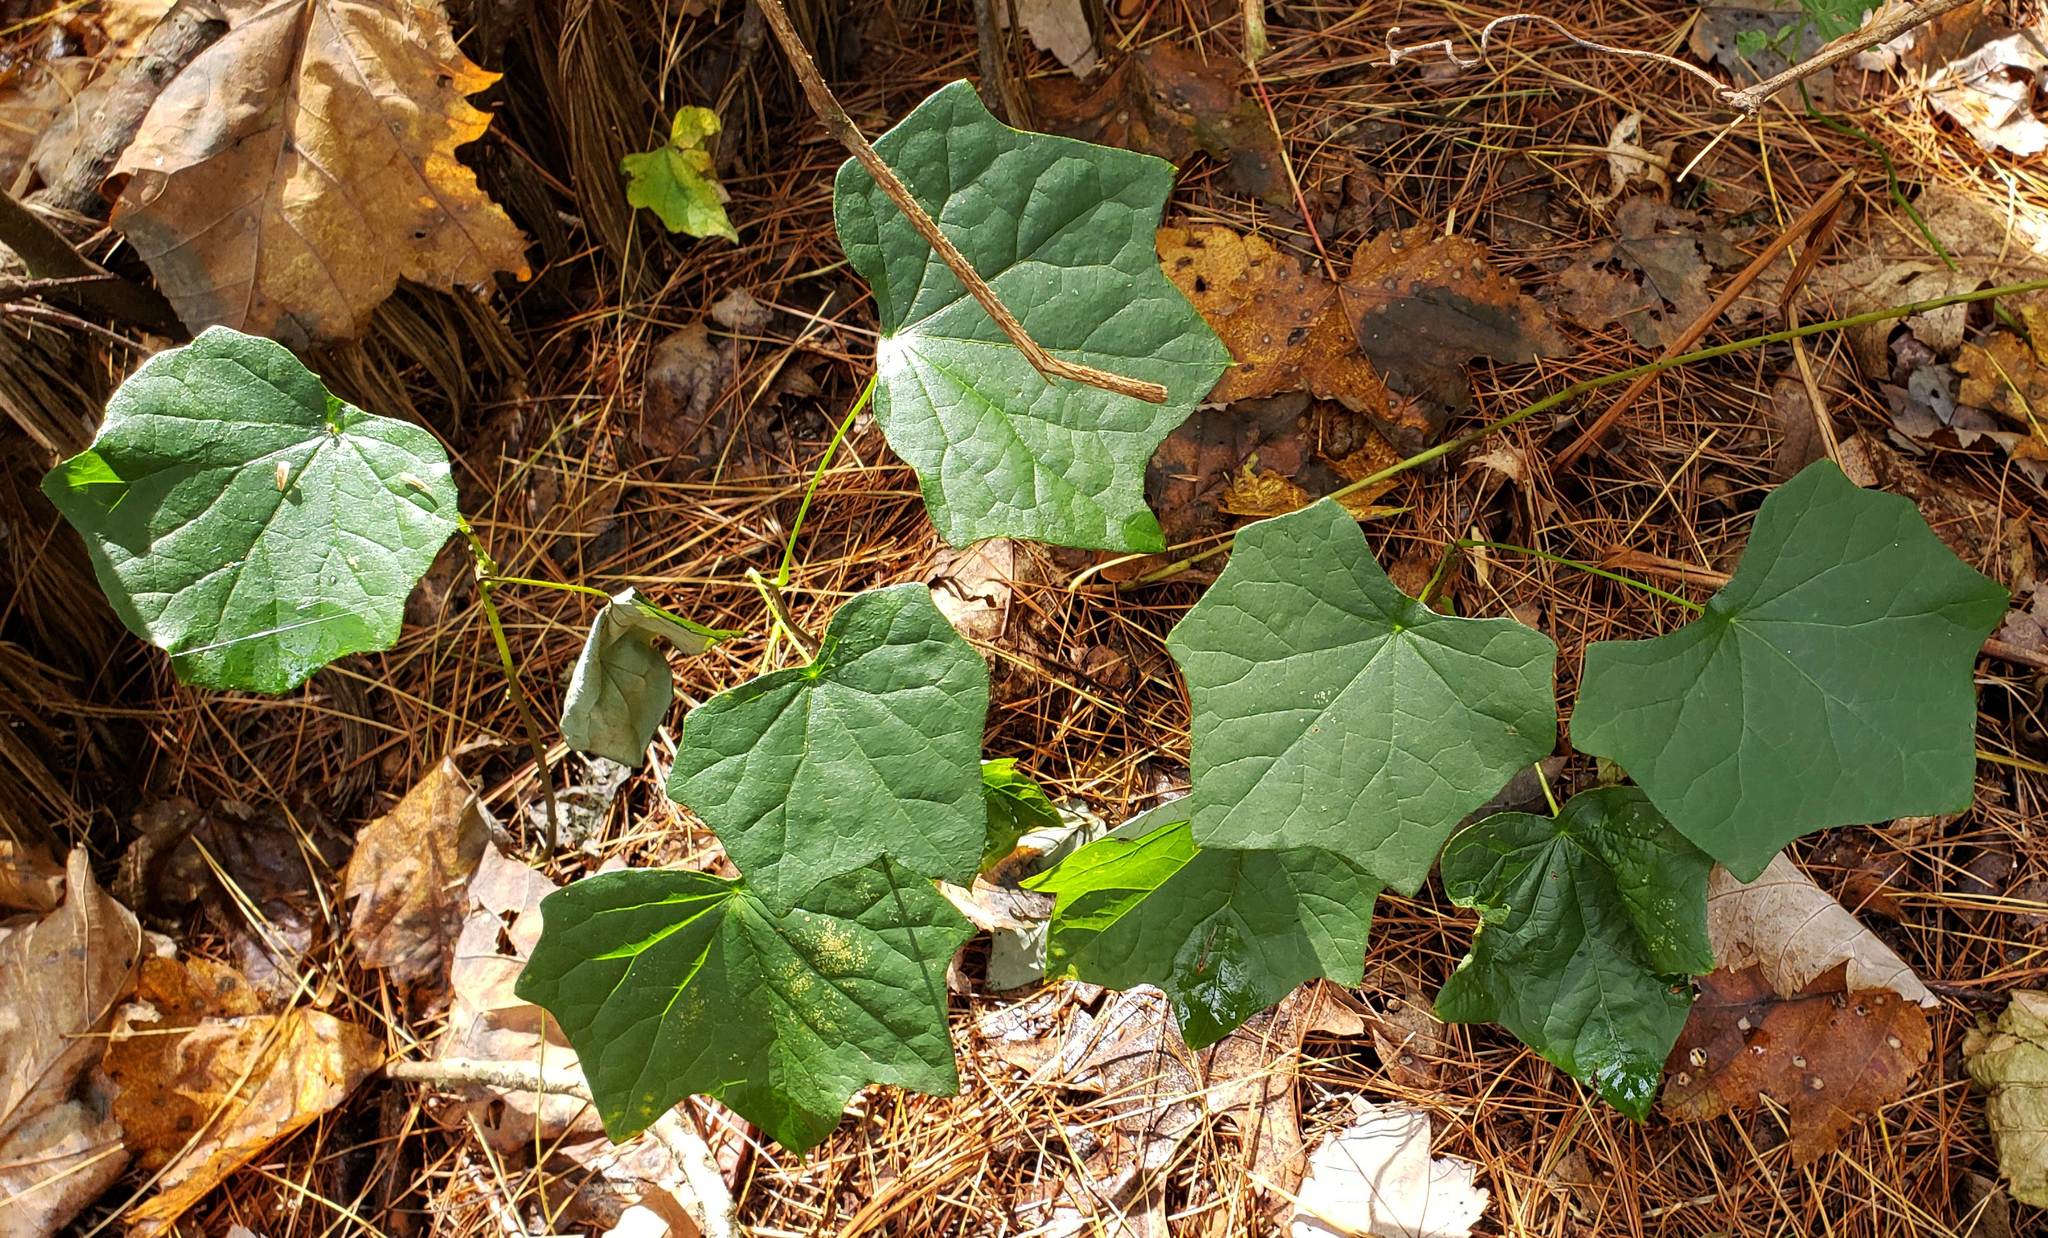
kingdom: Plantae
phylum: Tracheophyta
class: Magnoliopsida
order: Ranunculales
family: Menispermaceae
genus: Menispermum
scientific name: Menispermum canadense
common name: Moonseed
